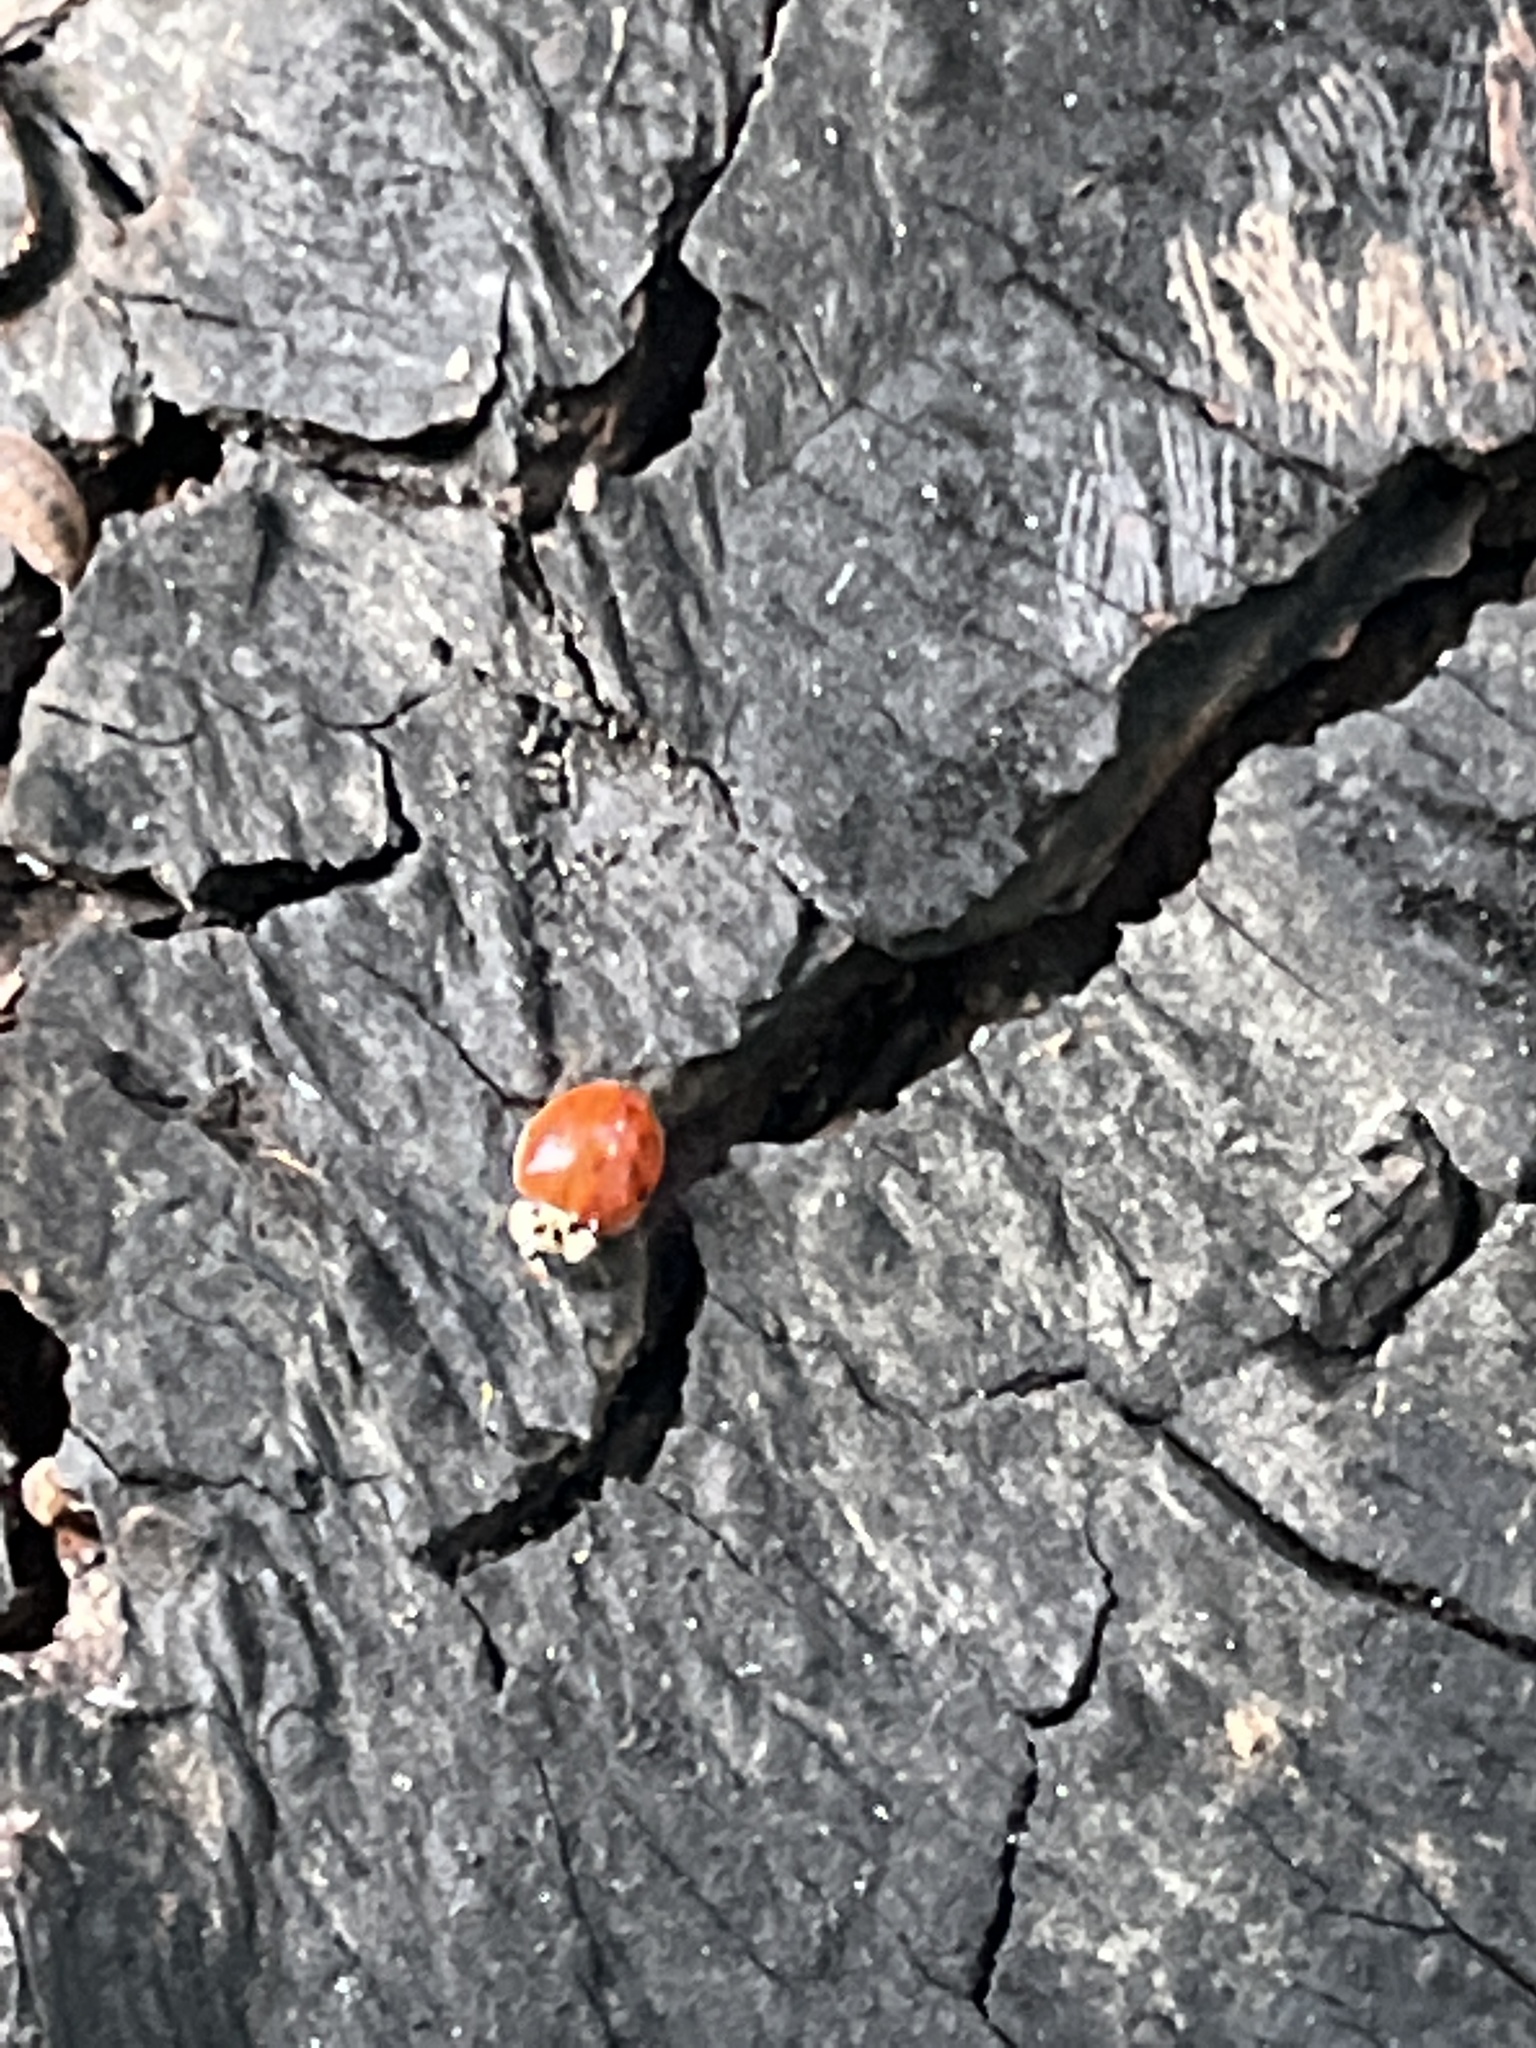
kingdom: Animalia
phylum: Arthropoda
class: Insecta
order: Coleoptera
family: Coccinellidae
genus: Harmonia
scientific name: Harmonia axyridis
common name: Harlequin ladybird
